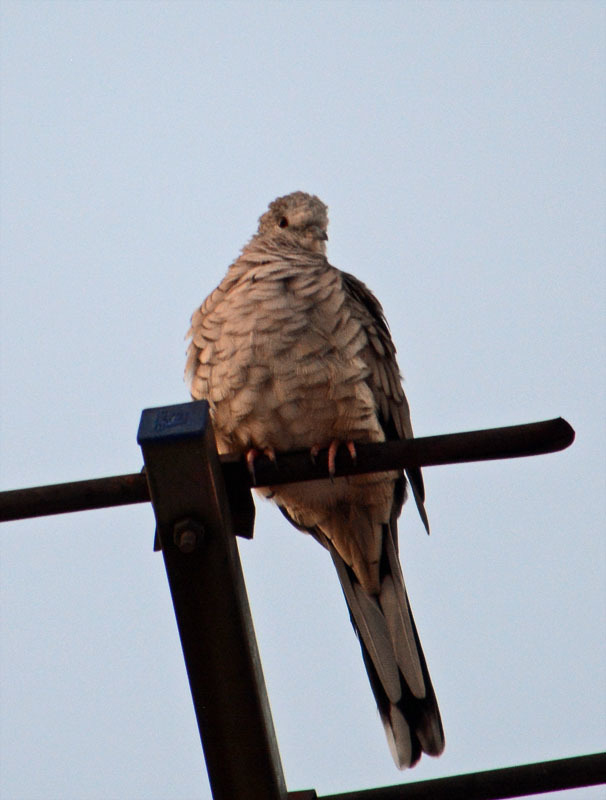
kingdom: Animalia
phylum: Chordata
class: Aves
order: Columbiformes
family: Columbidae
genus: Columbina
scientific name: Columbina inca
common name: Inca dove
